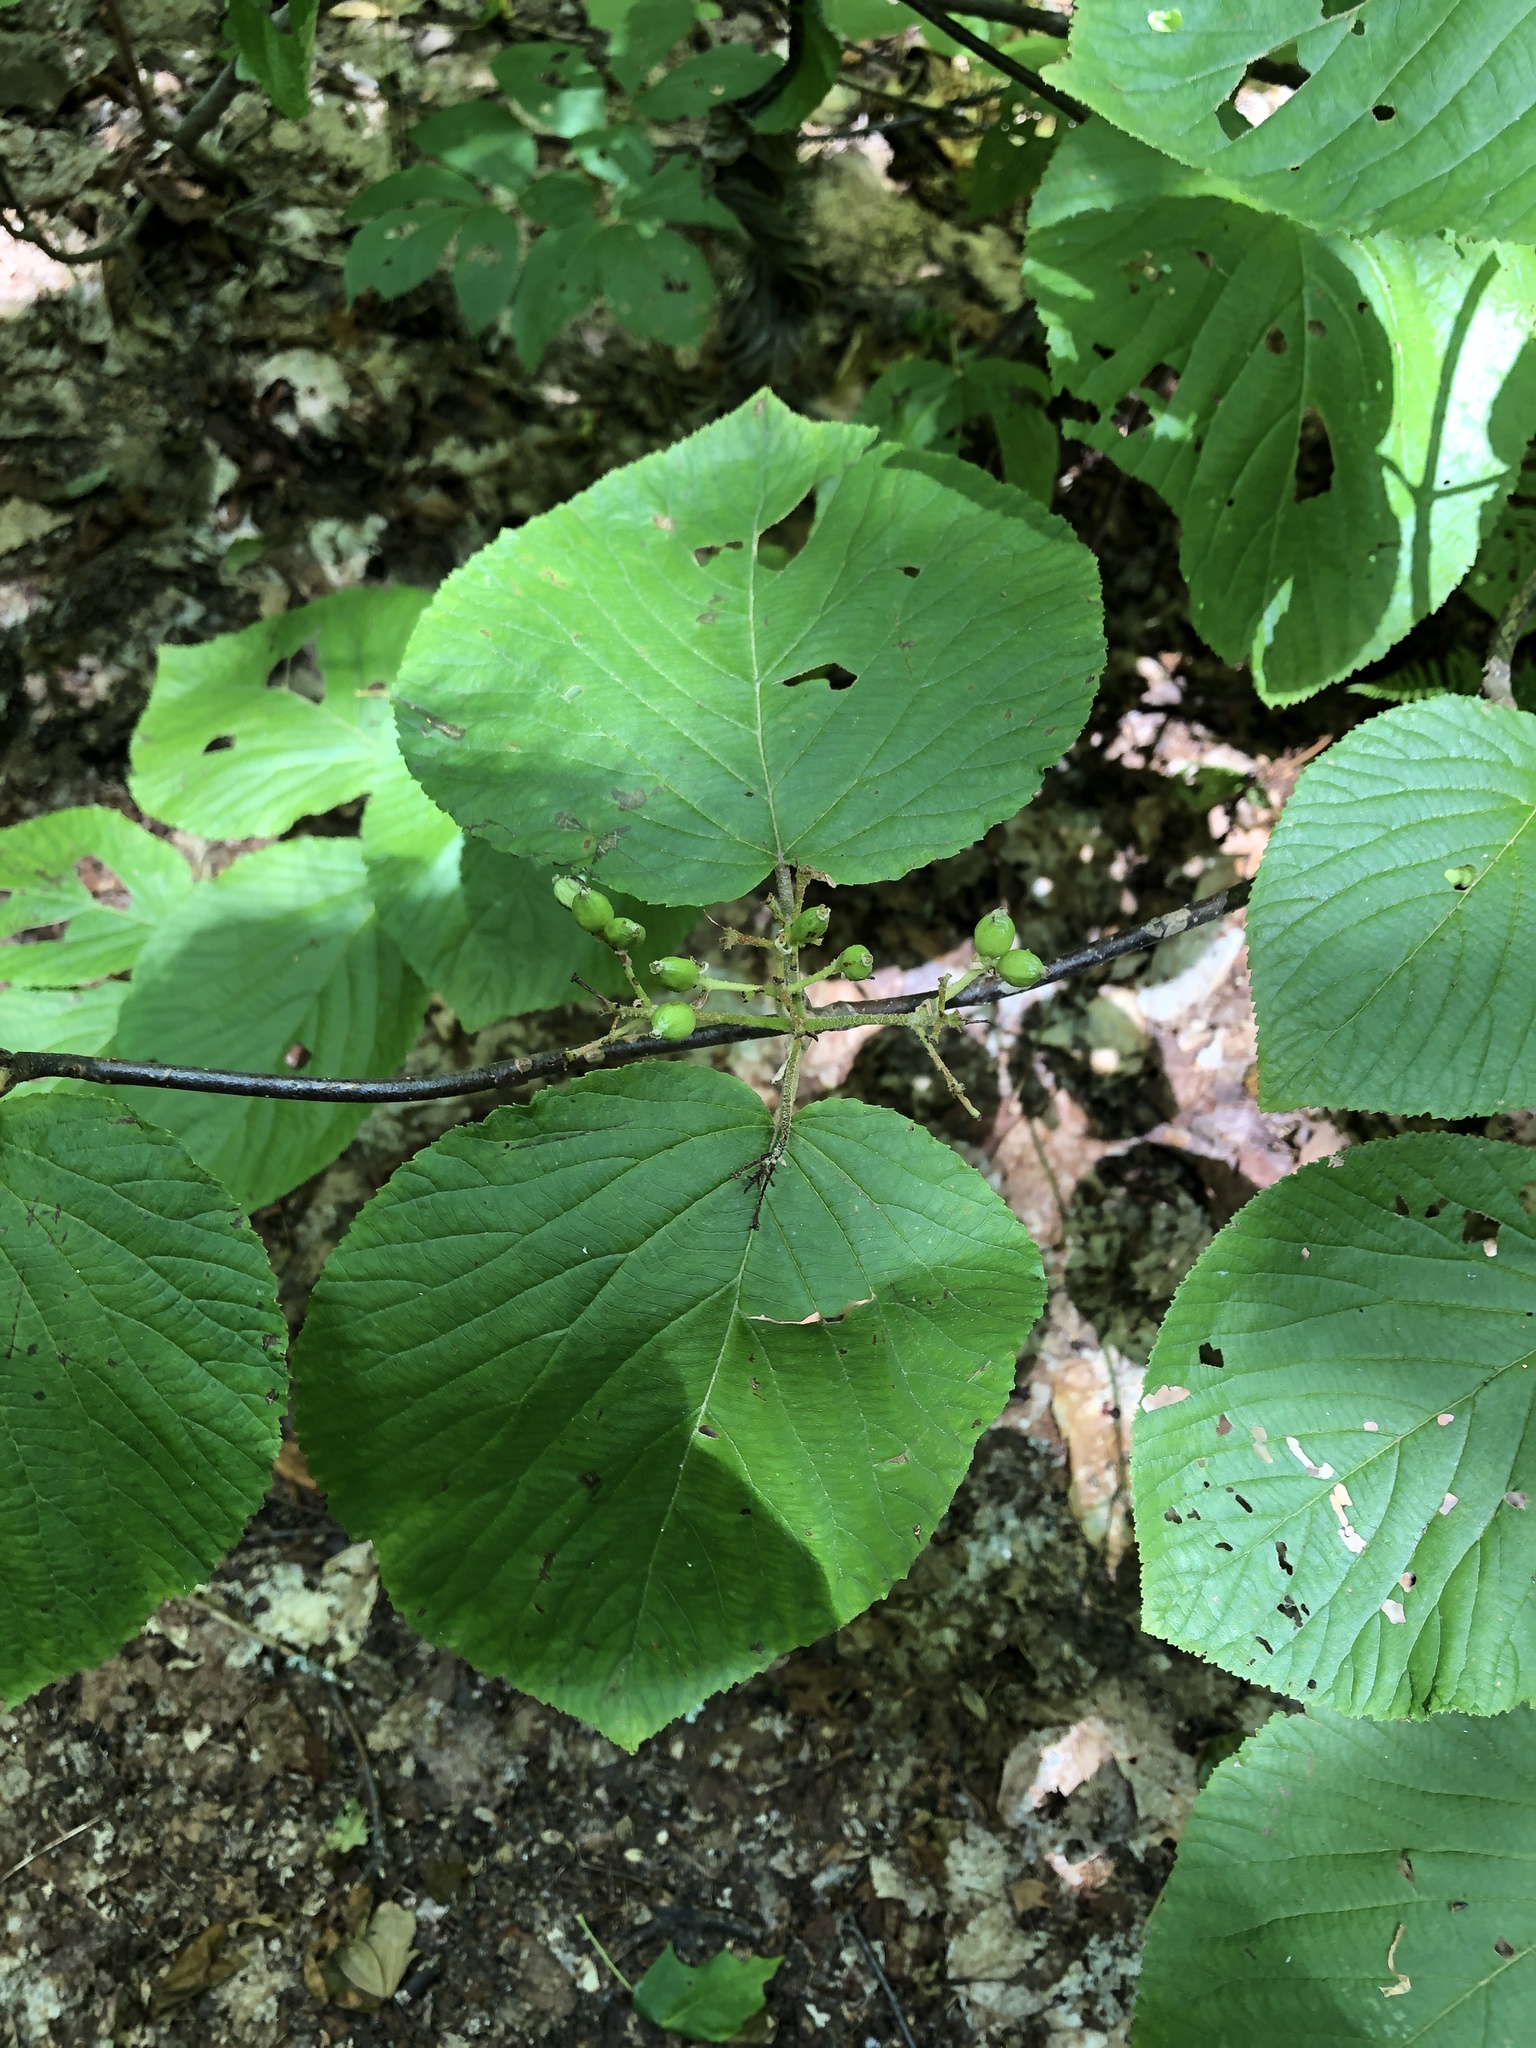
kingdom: Plantae
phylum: Tracheophyta
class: Magnoliopsida
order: Dipsacales
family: Viburnaceae
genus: Viburnum
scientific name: Viburnum lantanoides
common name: Hobblebush
